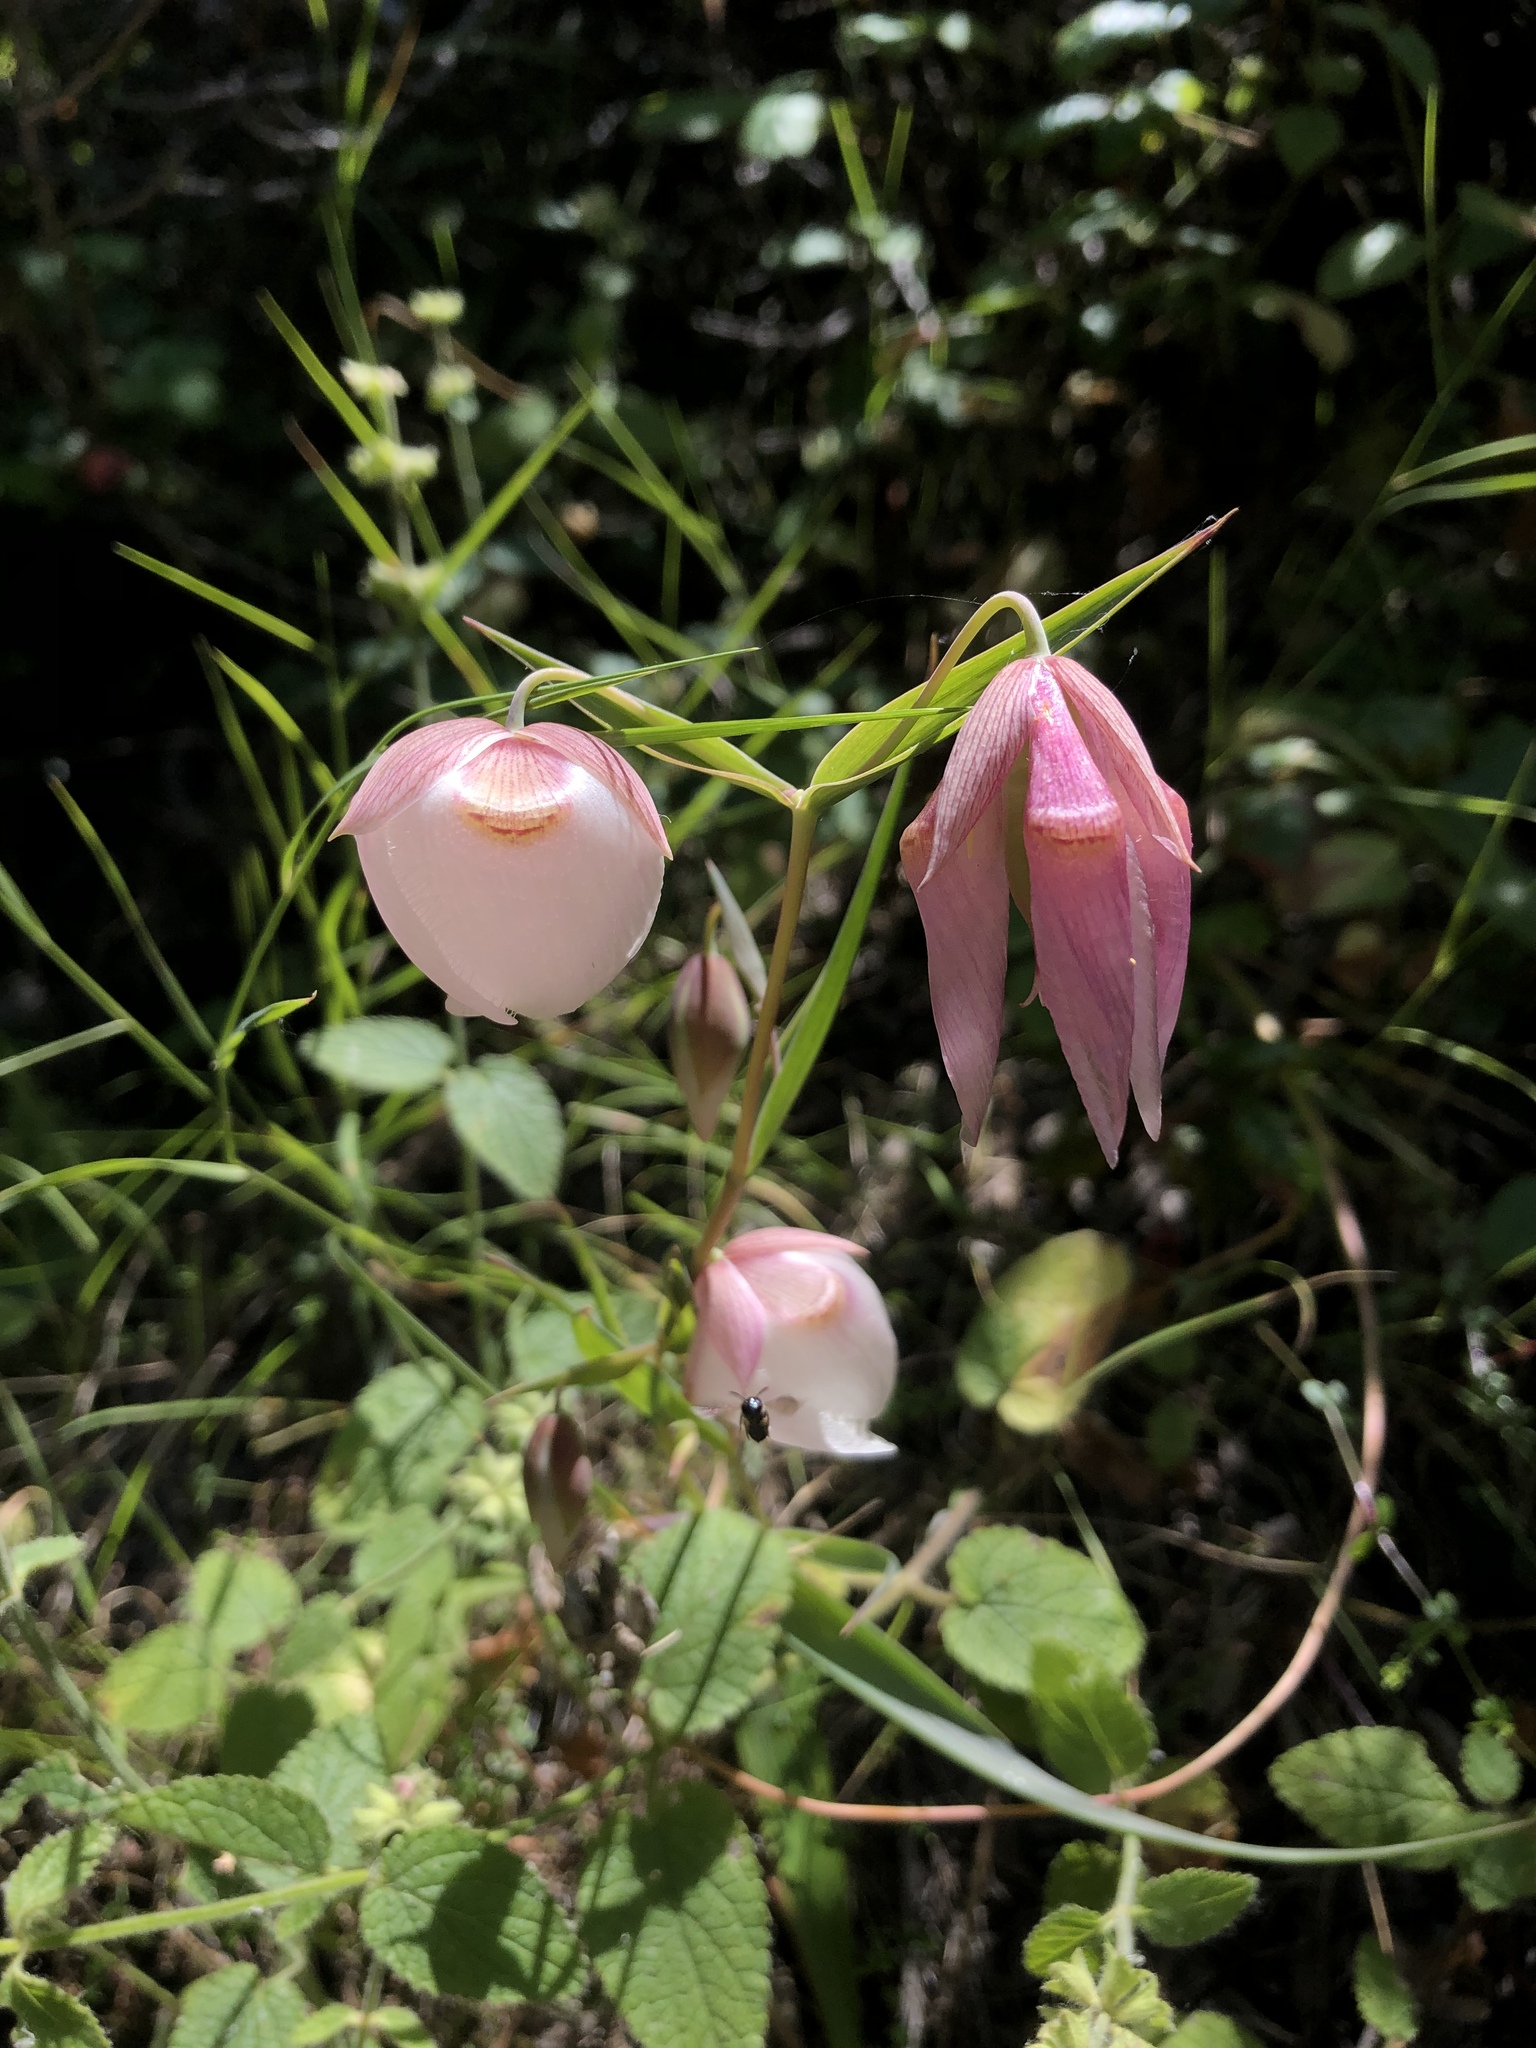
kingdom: Plantae
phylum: Tracheophyta
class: Liliopsida
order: Liliales
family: Liliaceae
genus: Calochortus
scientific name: Calochortus albus
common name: Fairy-lantern
